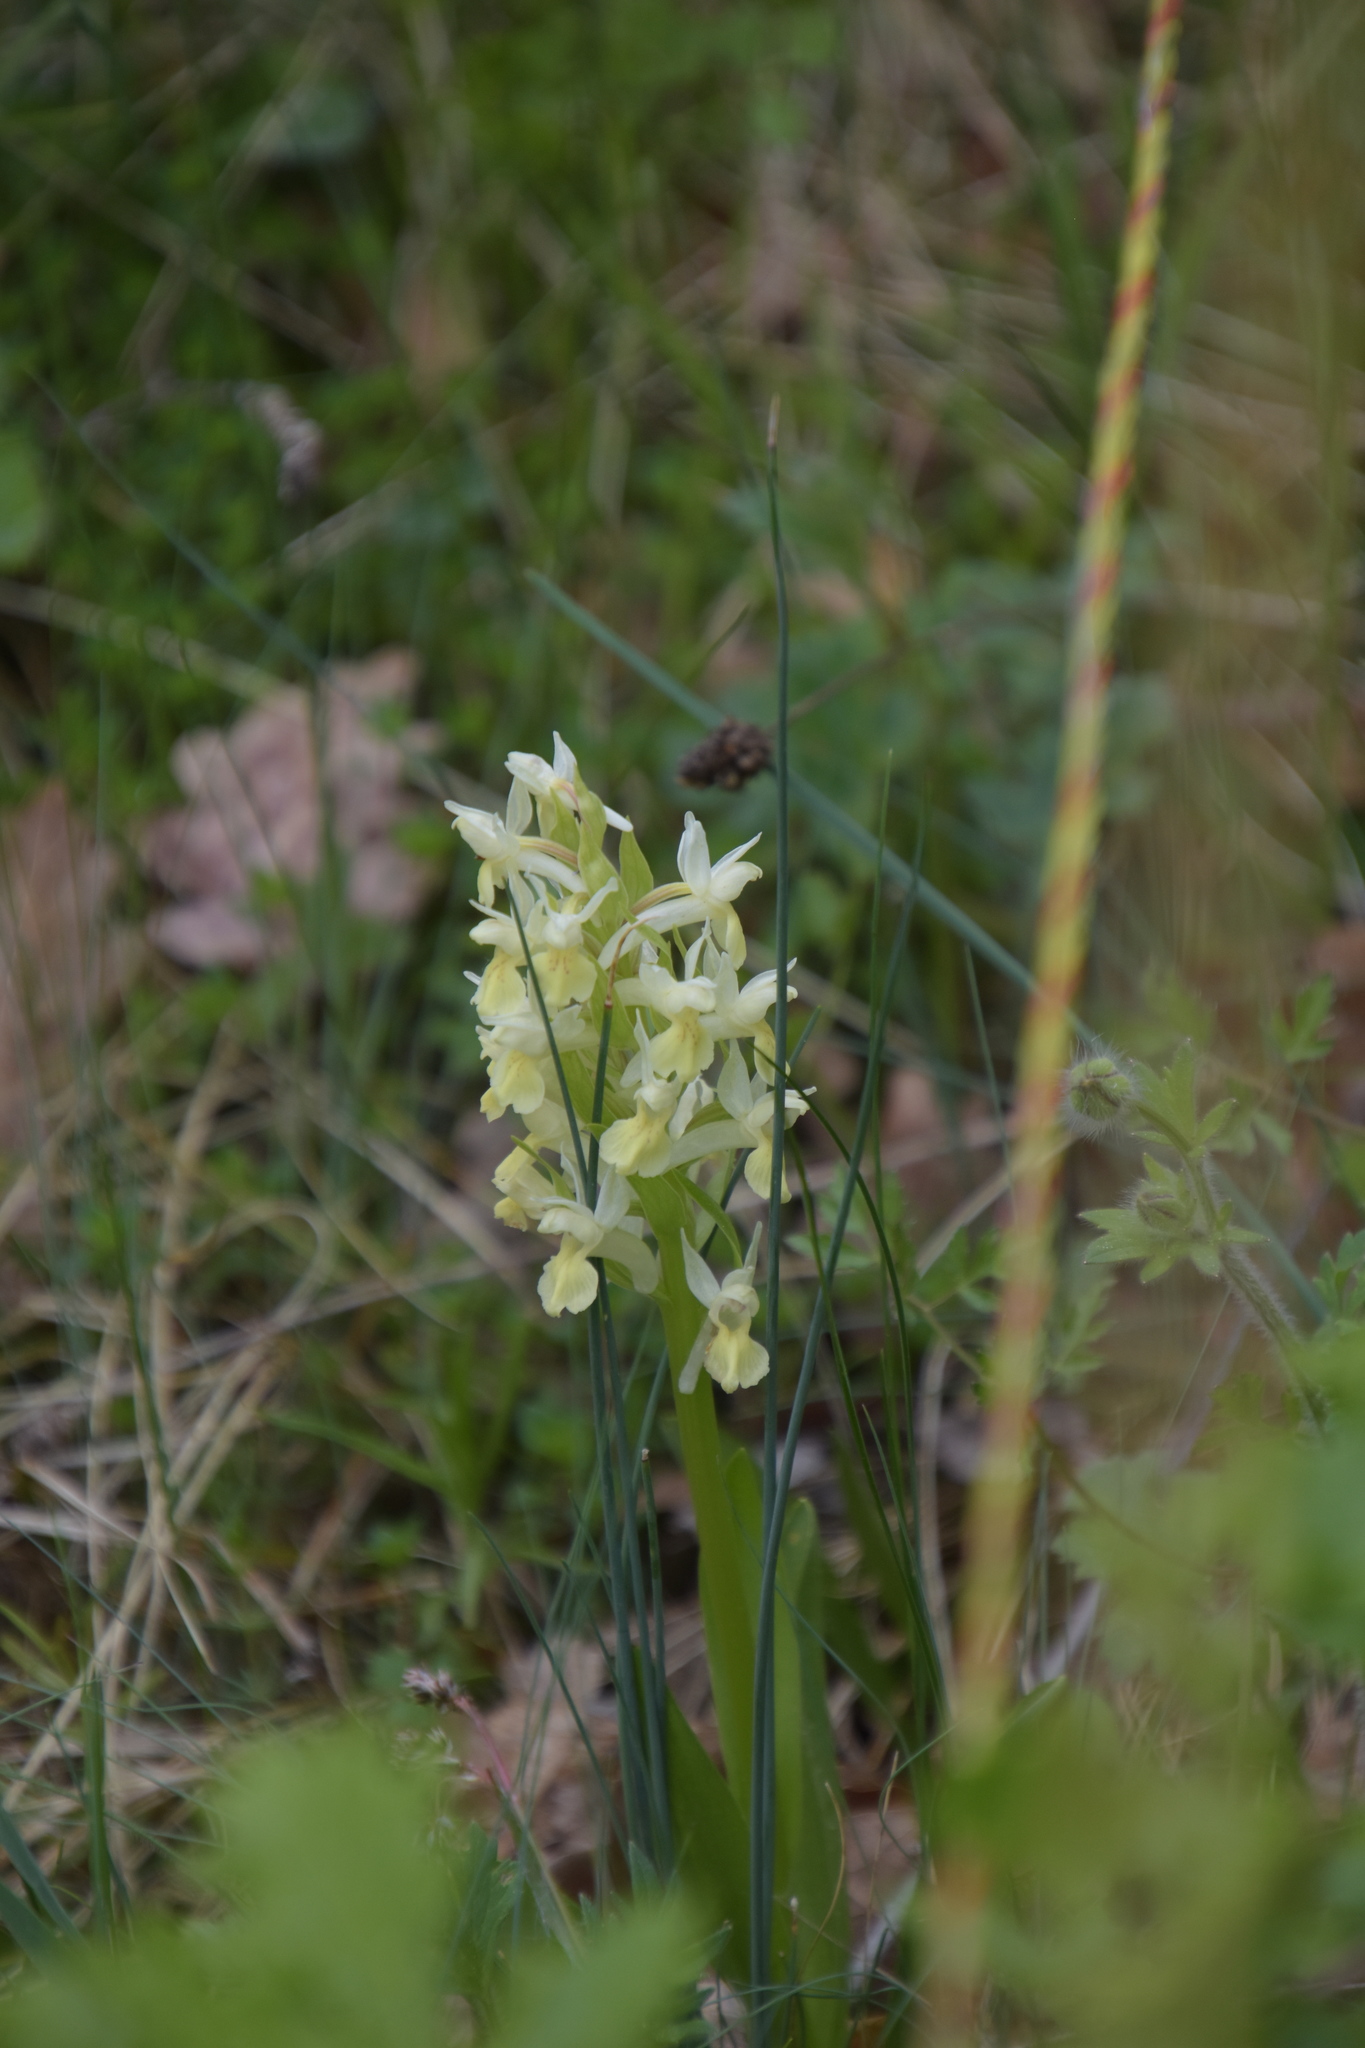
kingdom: Plantae
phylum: Tracheophyta
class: Liliopsida
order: Asparagales
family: Orchidaceae
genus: Dactylorhiza
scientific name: Dactylorhiza sambucina
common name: Elder-flowered orchid
